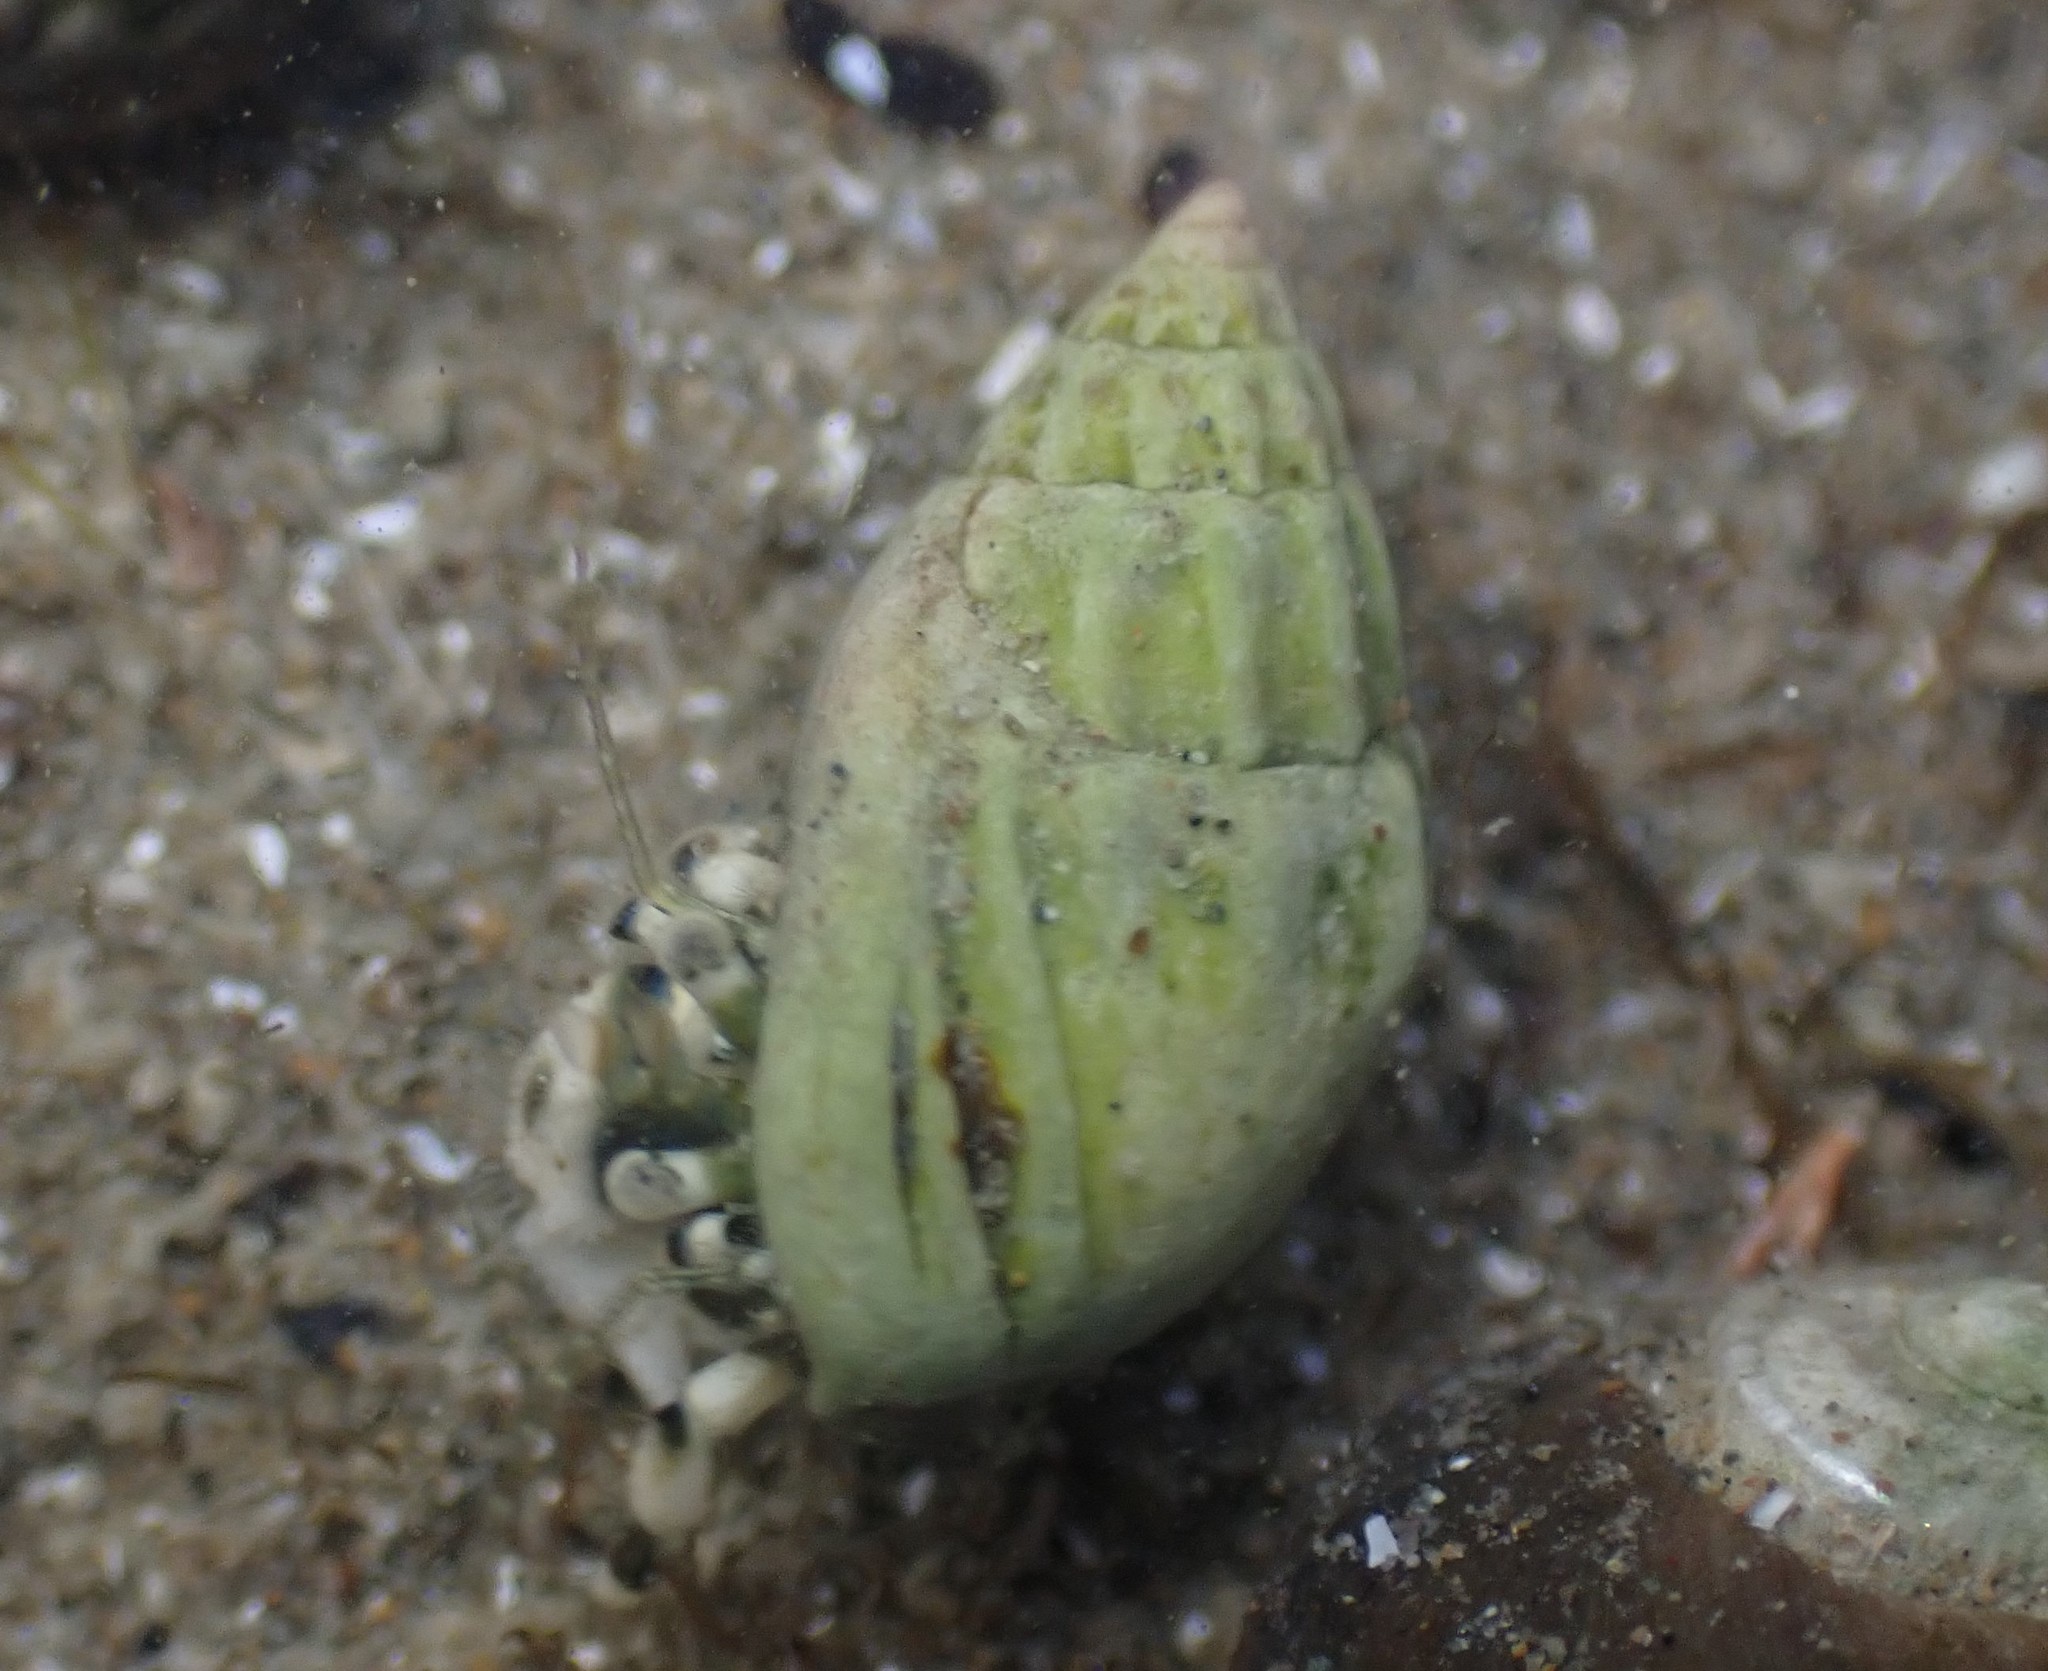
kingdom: Animalia
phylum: Mollusca
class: Gastropoda
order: Neogastropoda
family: Nassariidae
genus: Tritia
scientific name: Tritia burchardi
